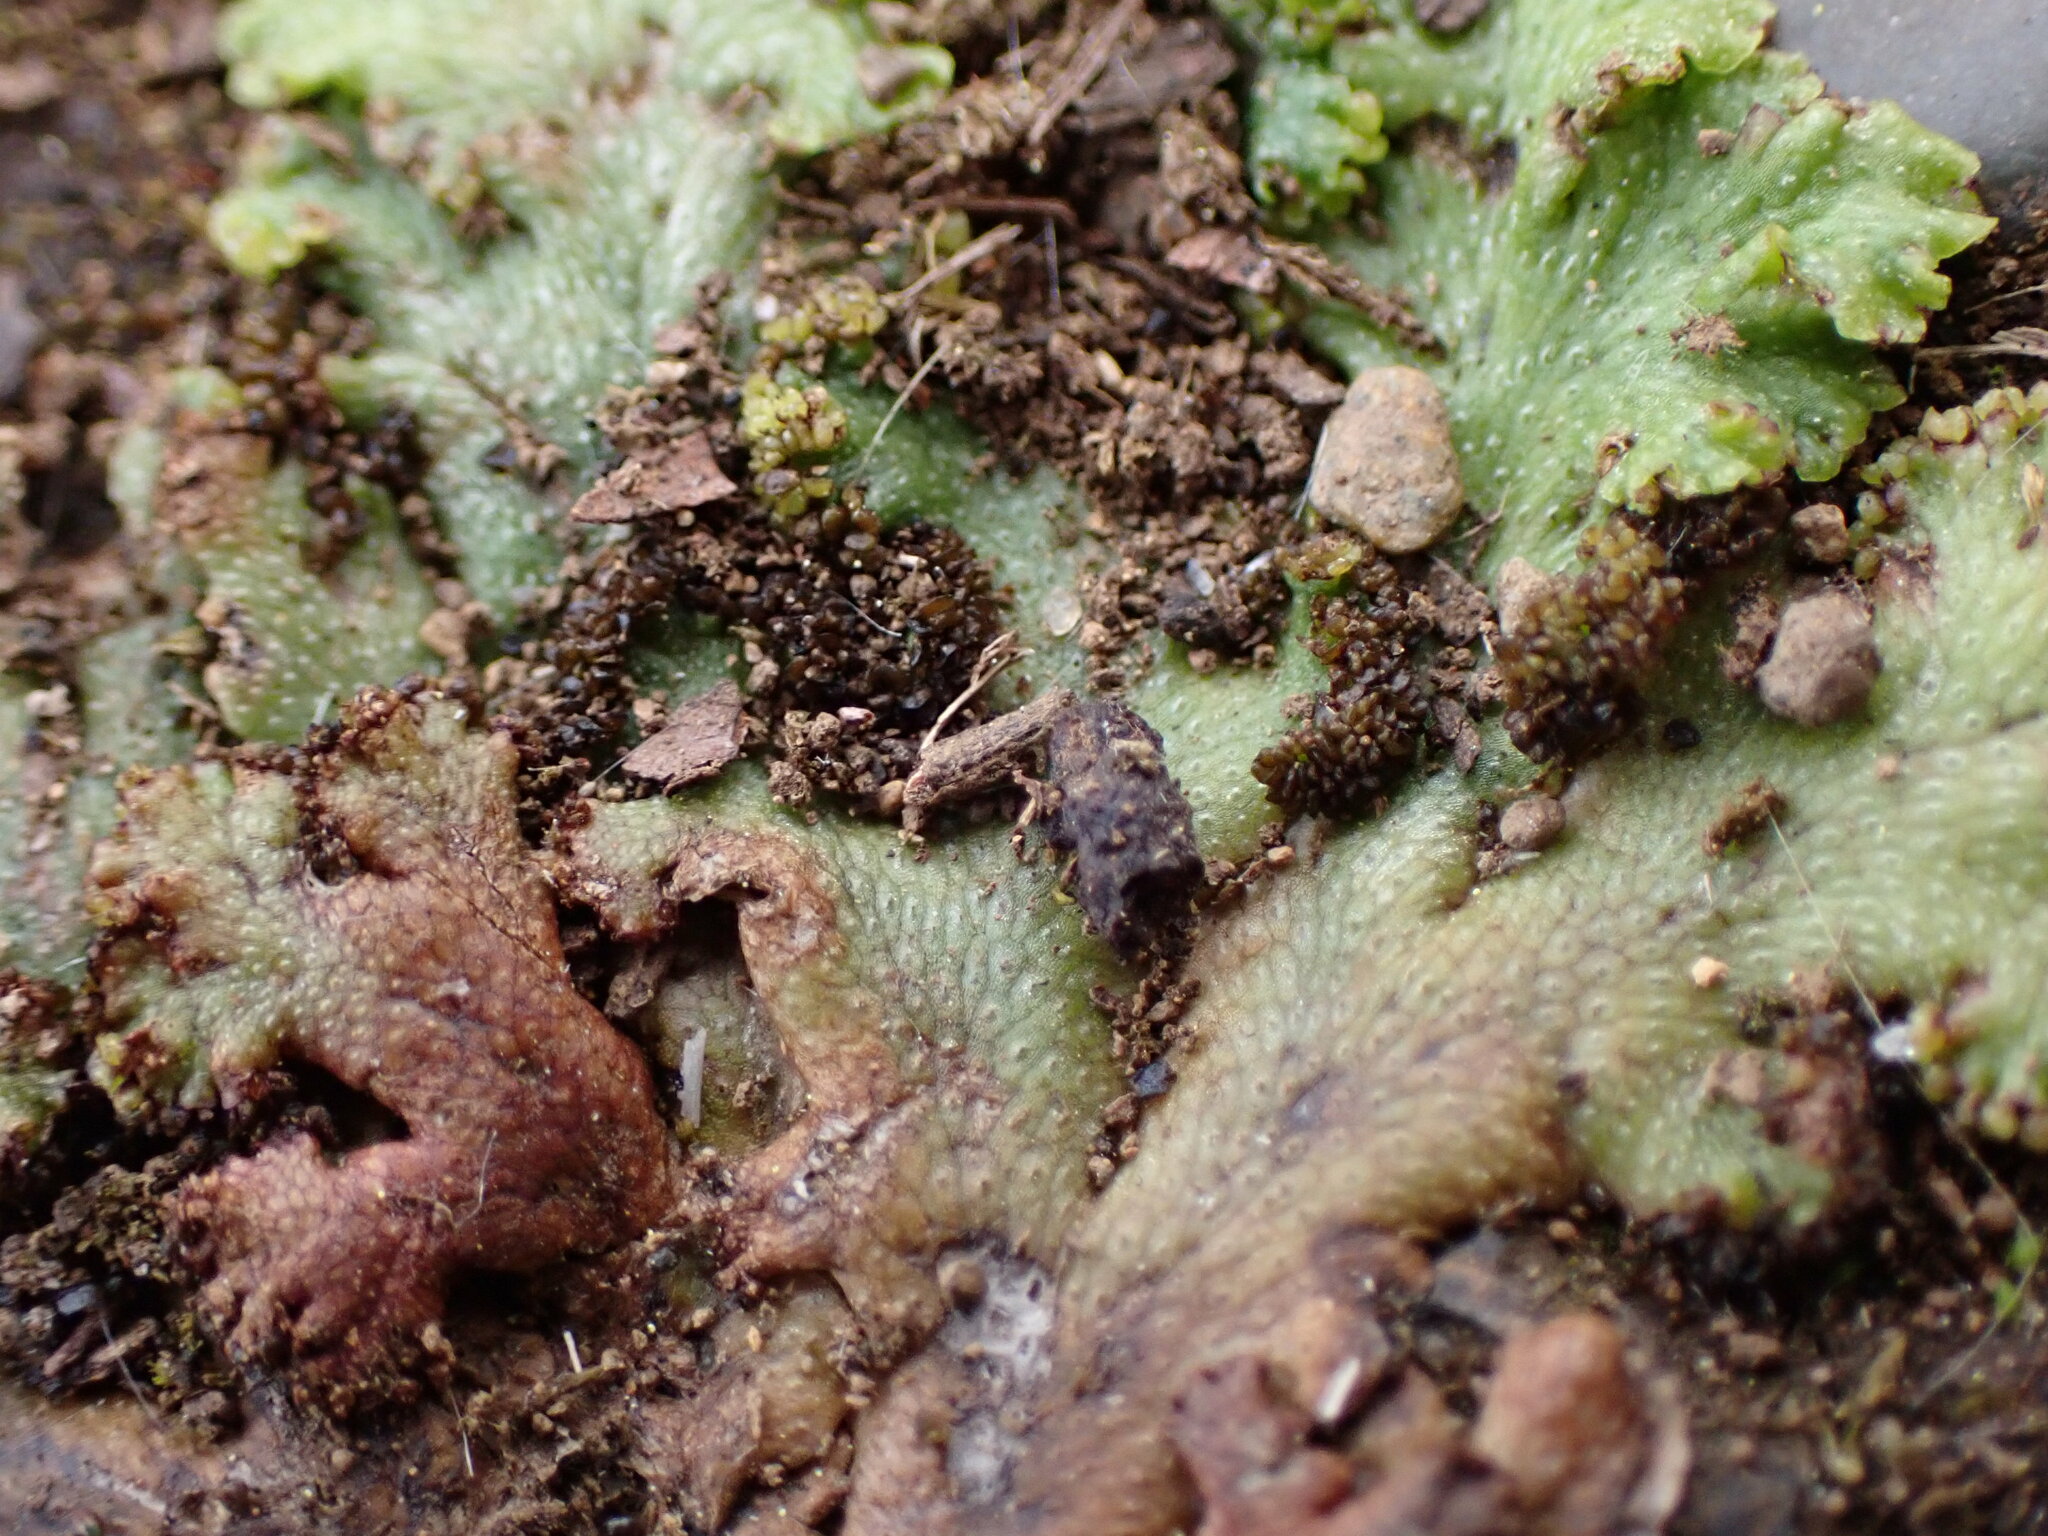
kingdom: Plantae
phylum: Marchantiophyta
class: Marchantiopsida
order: Marchantiales
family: Conocephalaceae
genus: Sandea
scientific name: Sandea japonica
